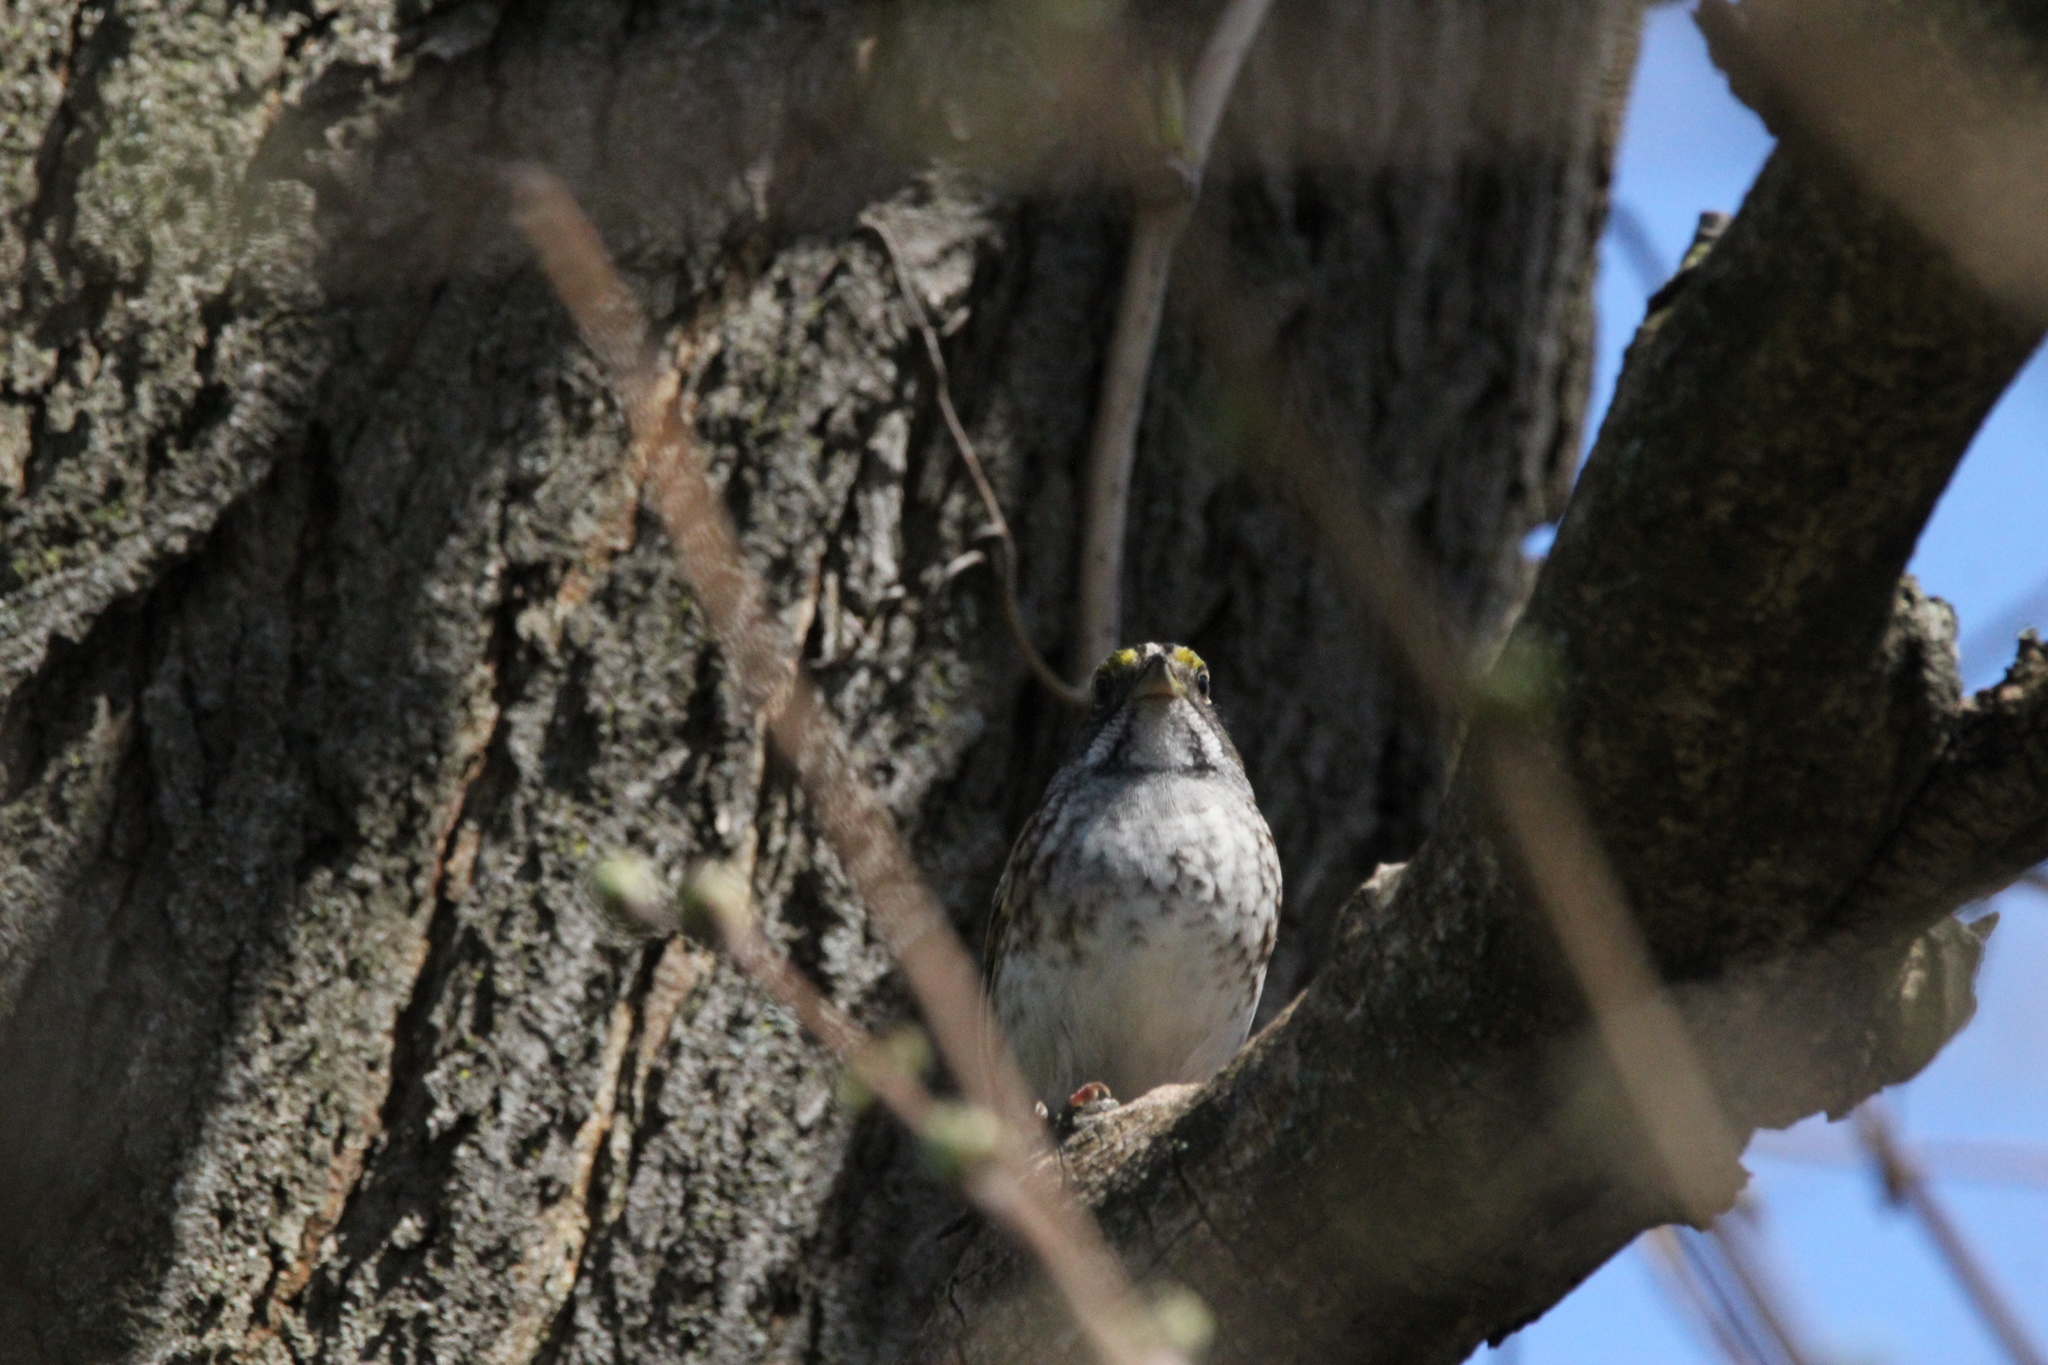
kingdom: Animalia
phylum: Chordata
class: Aves
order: Passeriformes
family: Passerellidae
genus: Zonotrichia
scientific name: Zonotrichia albicollis
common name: White-throated sparrow
